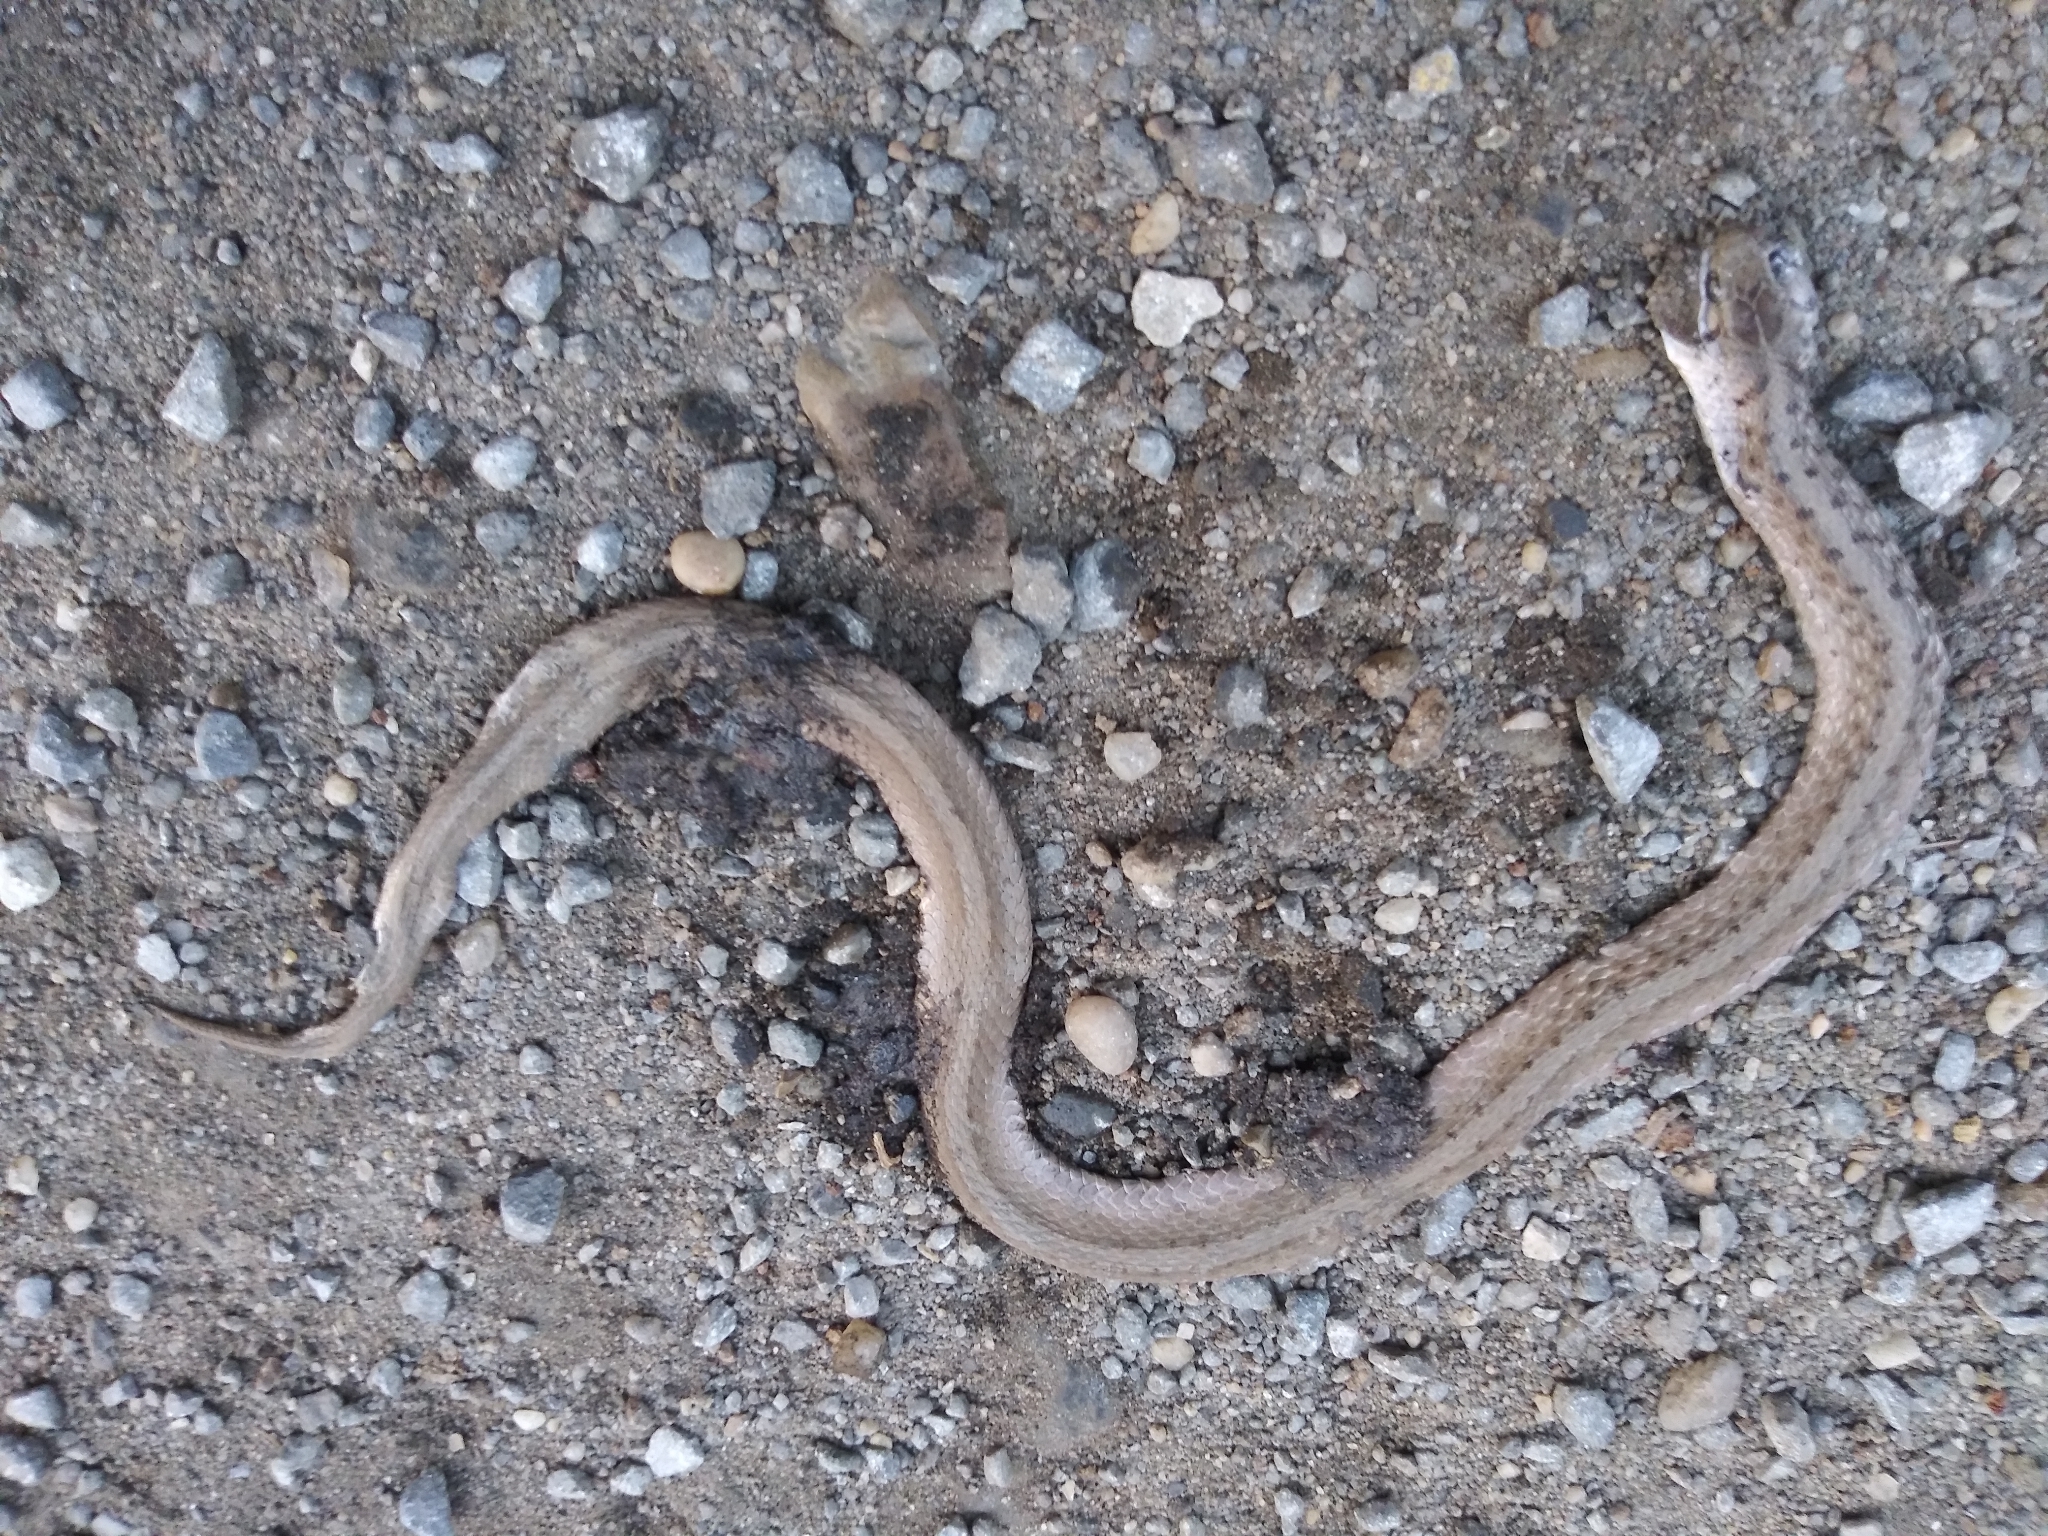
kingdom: Animalia
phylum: Chordata
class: Squamata
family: Colubridae
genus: Storeria
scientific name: Storeria dekayi
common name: (dekay’s) brown snake
